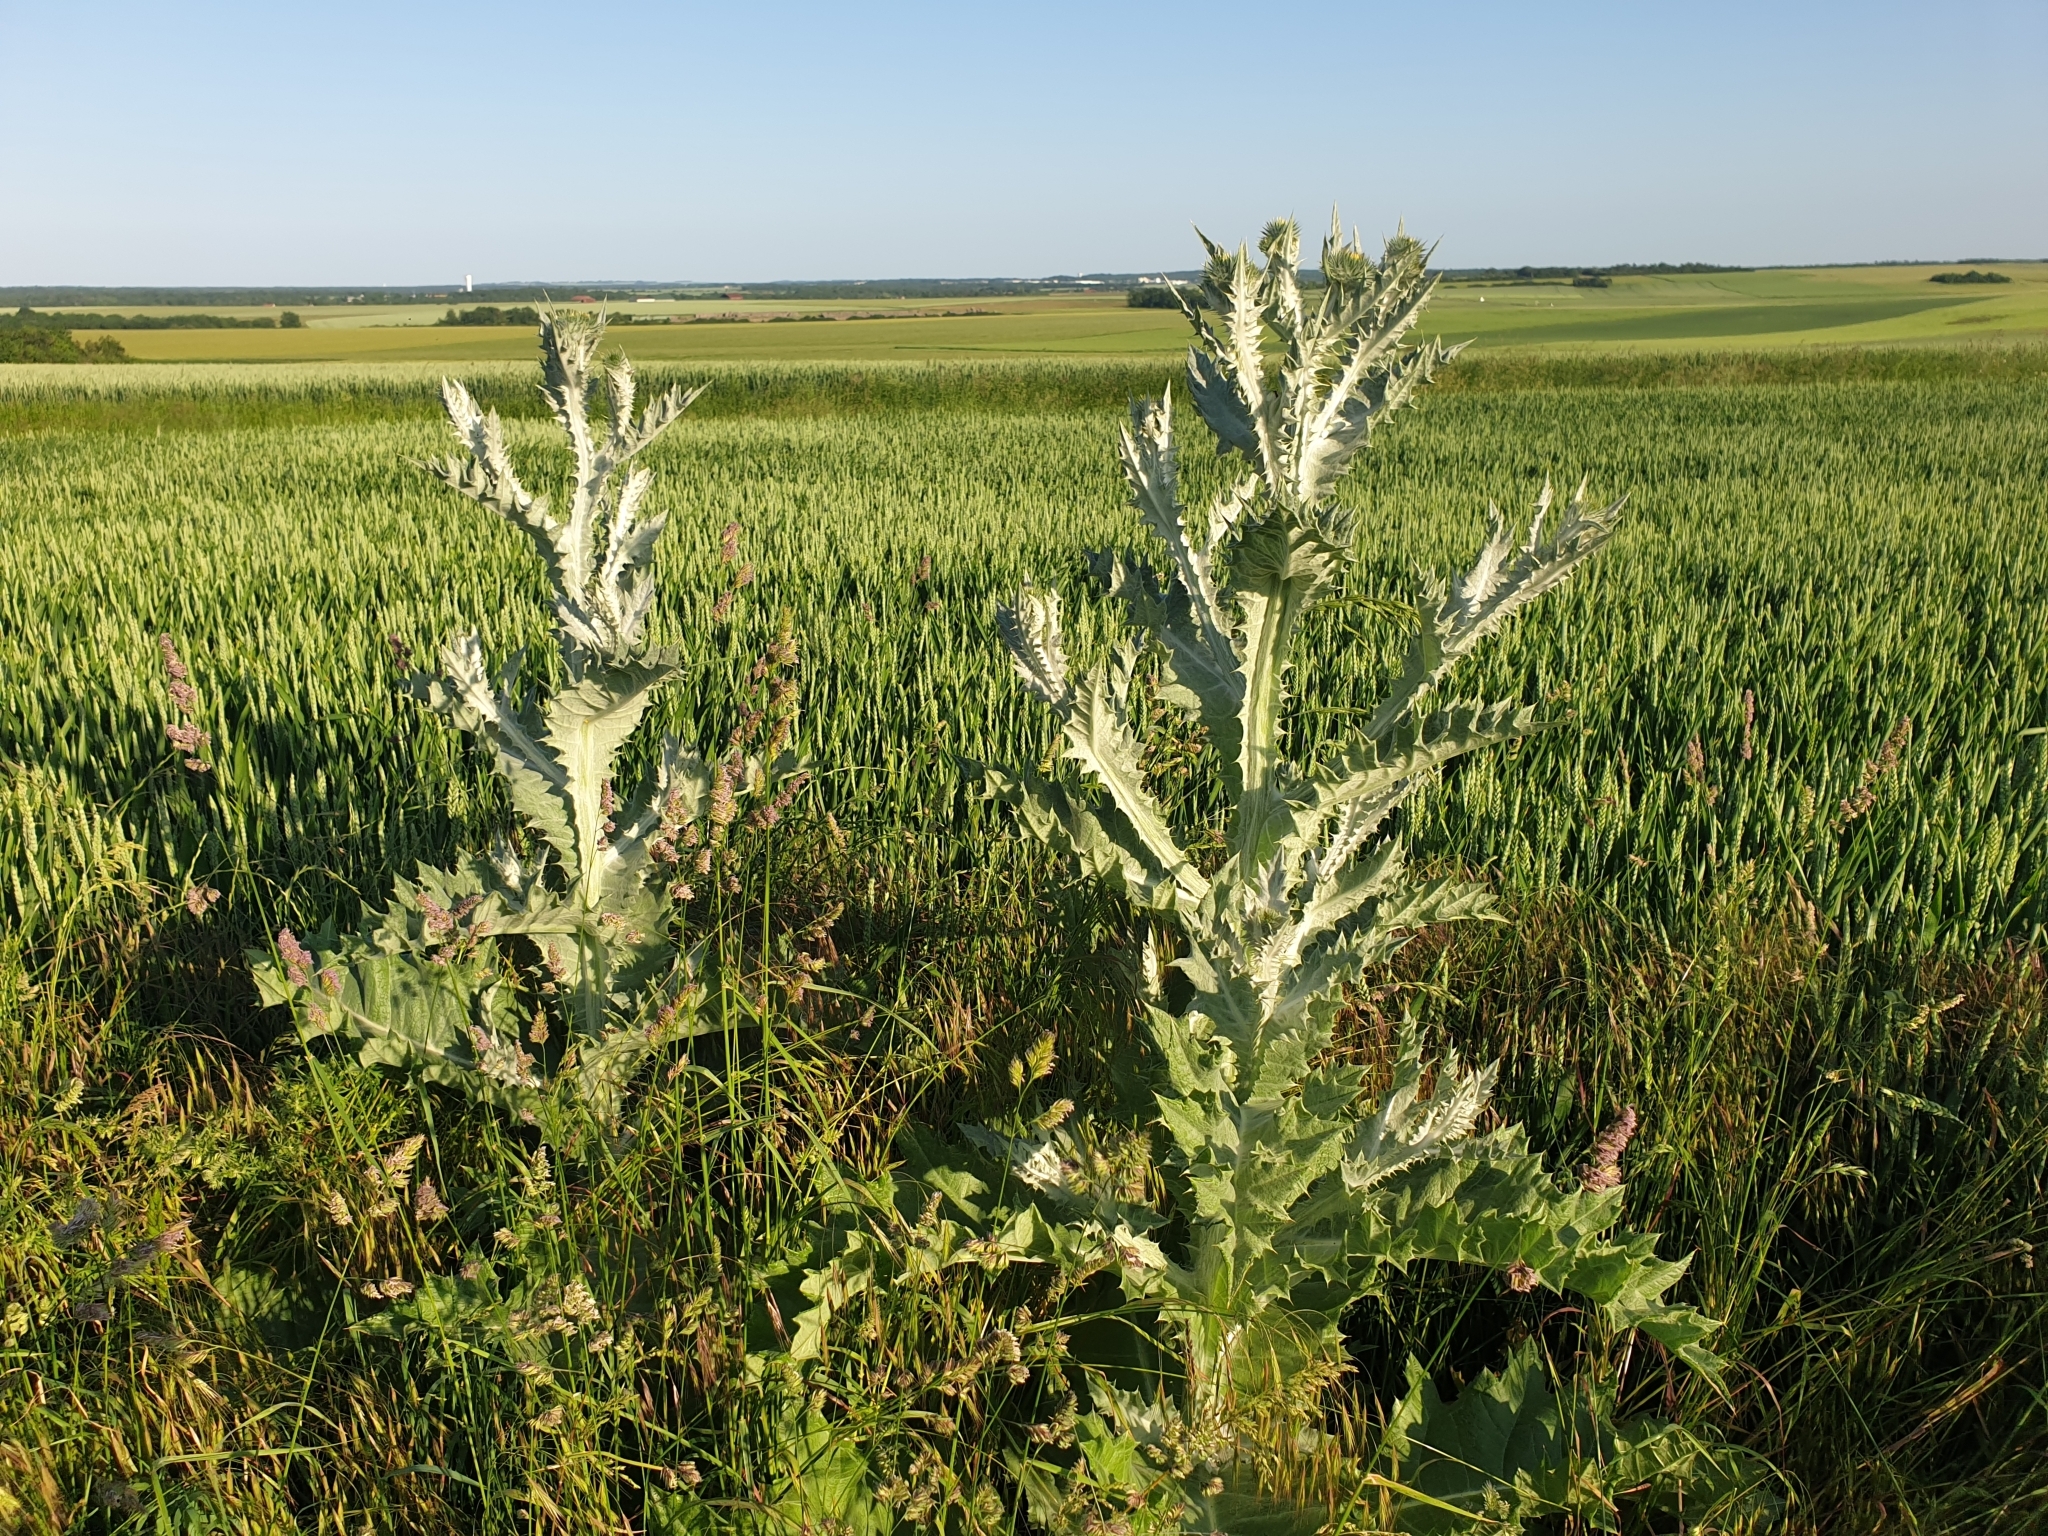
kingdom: Plantae
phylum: Tracheophyta
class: Magnoliopsida
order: Asterales
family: Asteraceae
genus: Onopordum
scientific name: Onopordum acanthium
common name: Scotch thistle
